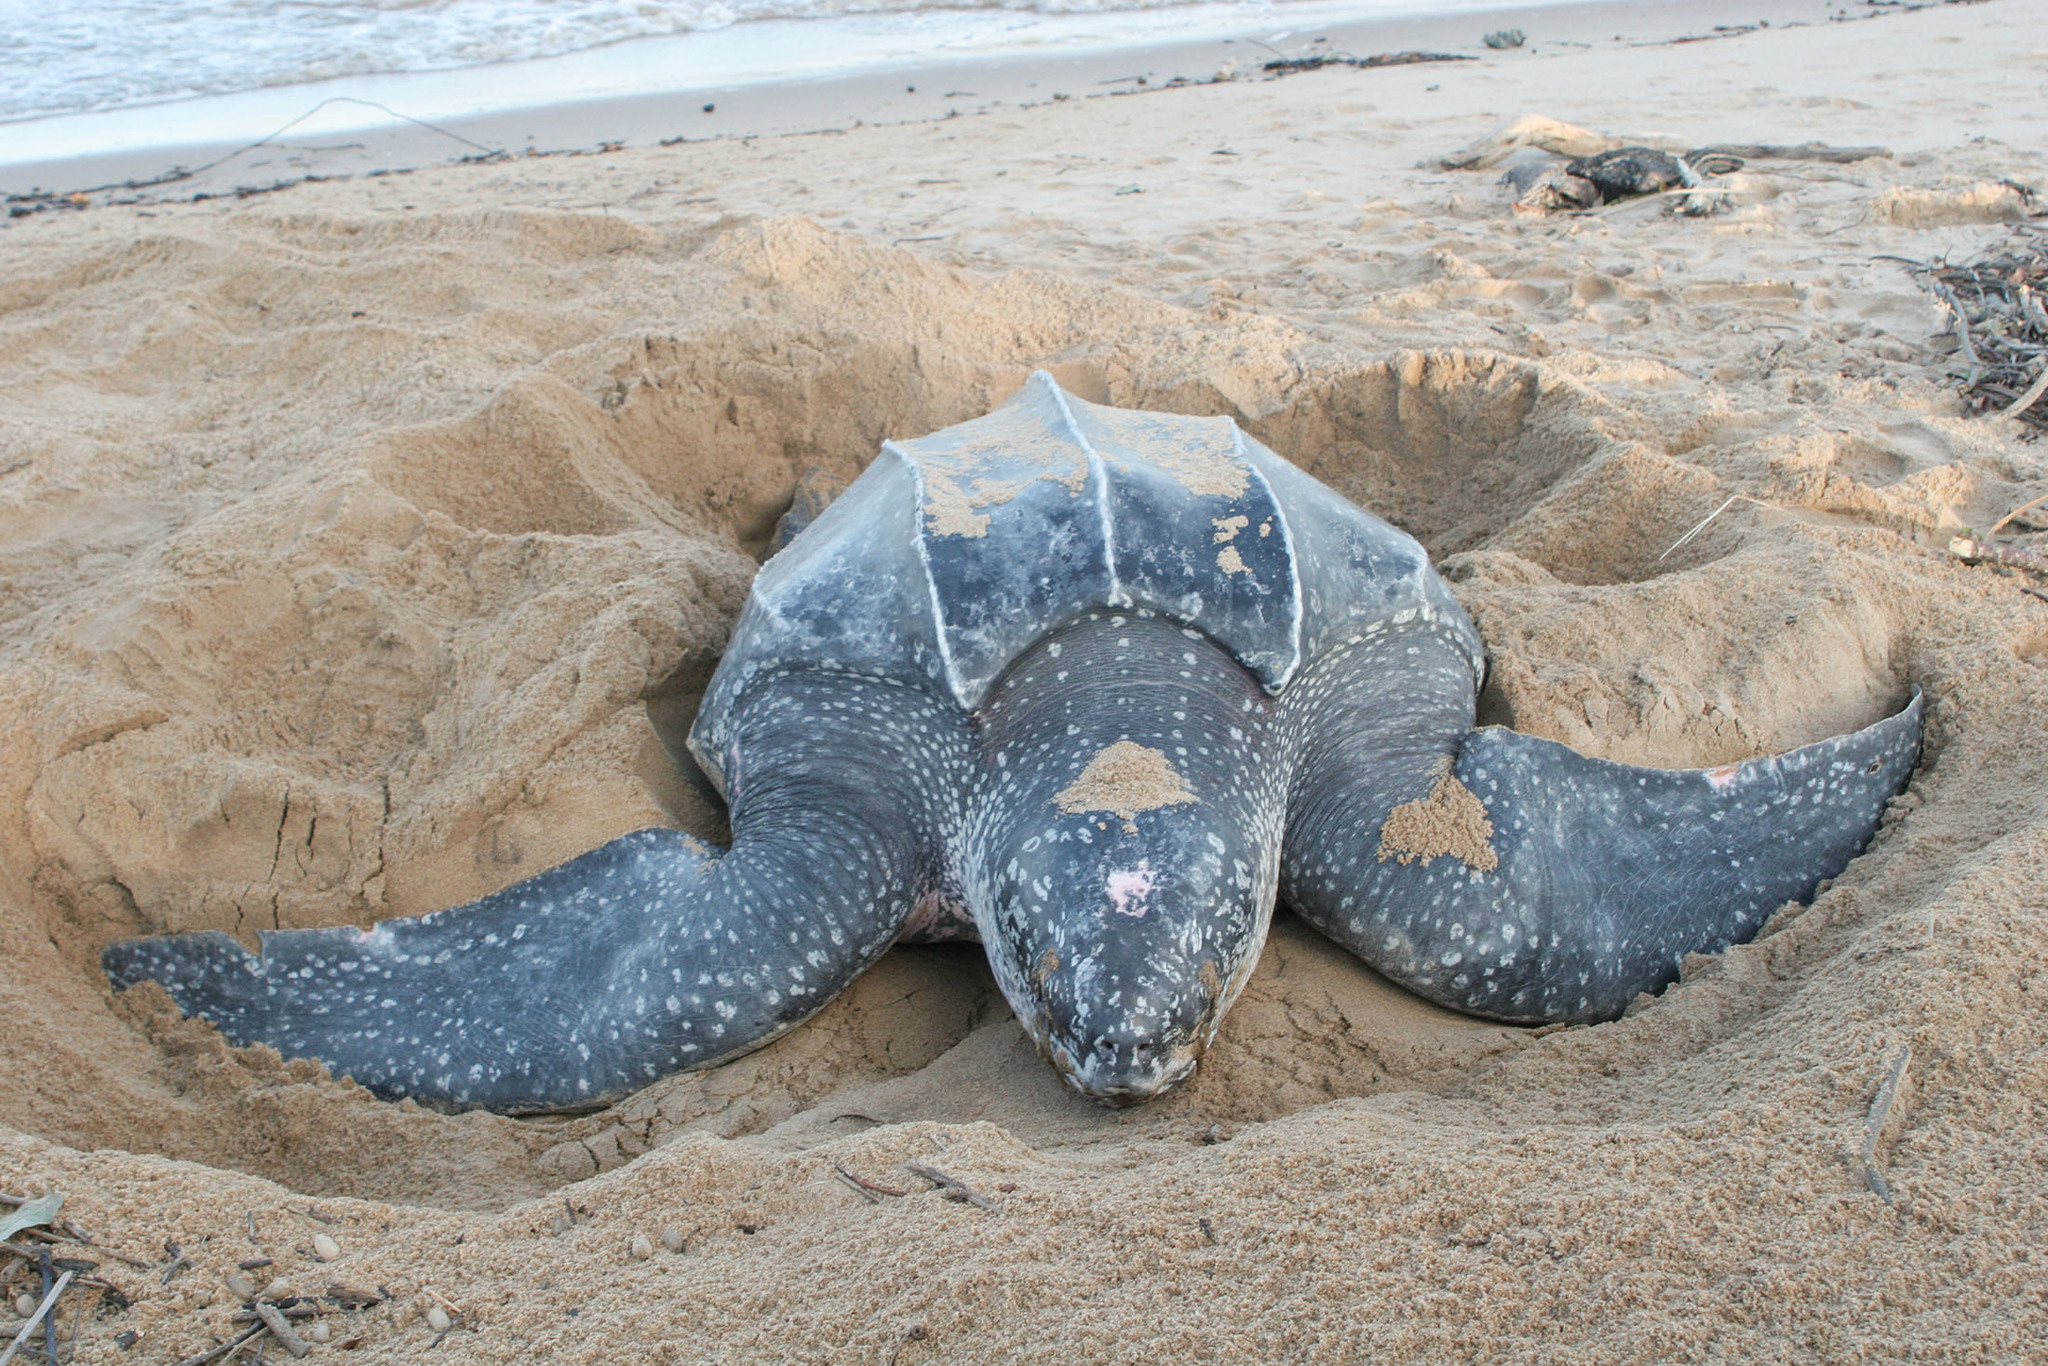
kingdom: Animalia
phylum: Chordata
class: Testudines
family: Dermochelyidae
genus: Dermochelys
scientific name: Dermochelys coriacea
